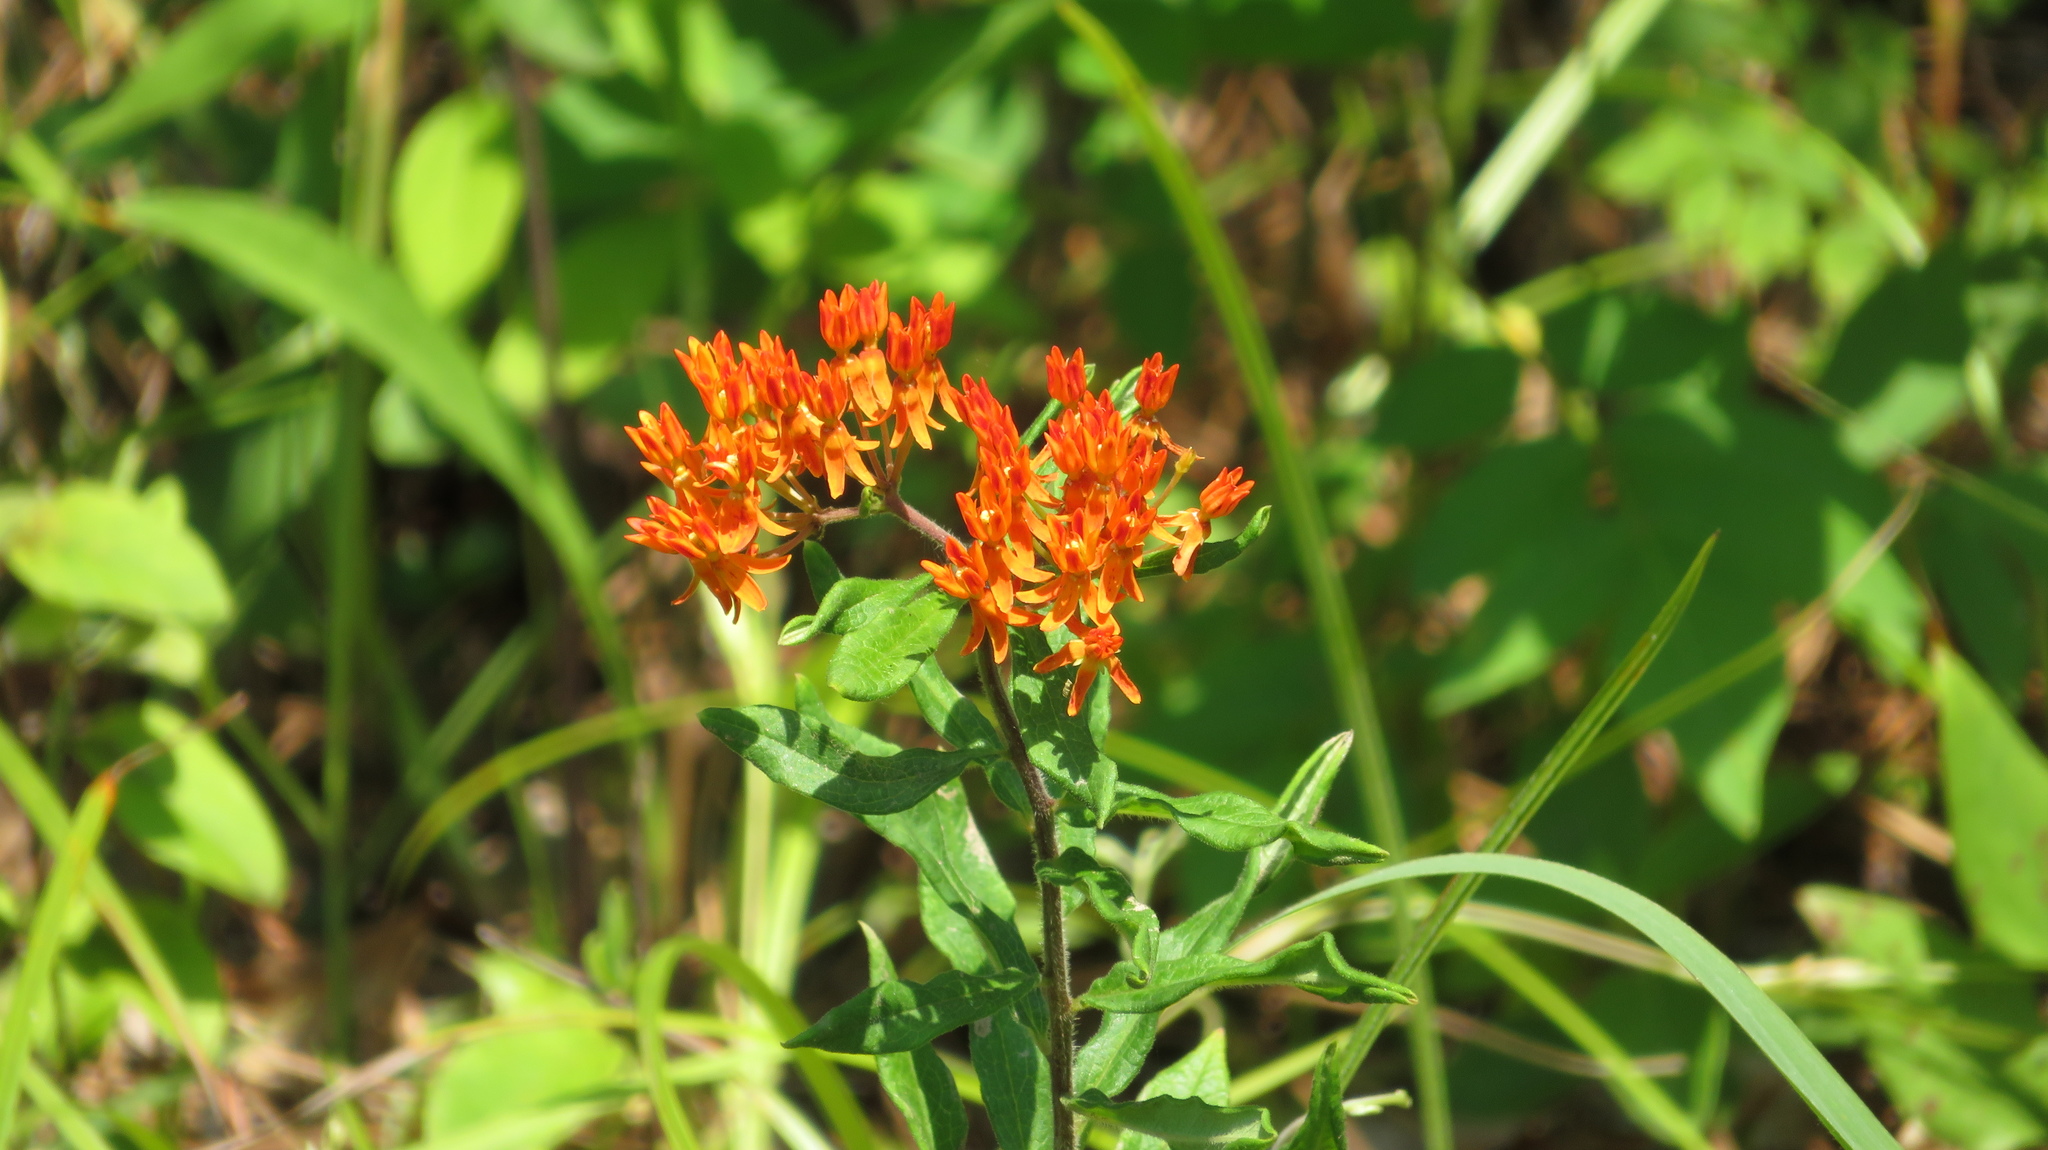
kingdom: Plantae
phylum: Tracheophyta
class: Magnoliopsida
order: Gentianales
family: Apocynaceae
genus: Asclepias
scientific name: Asclepias tuberosa
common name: Butterfly milkweed
